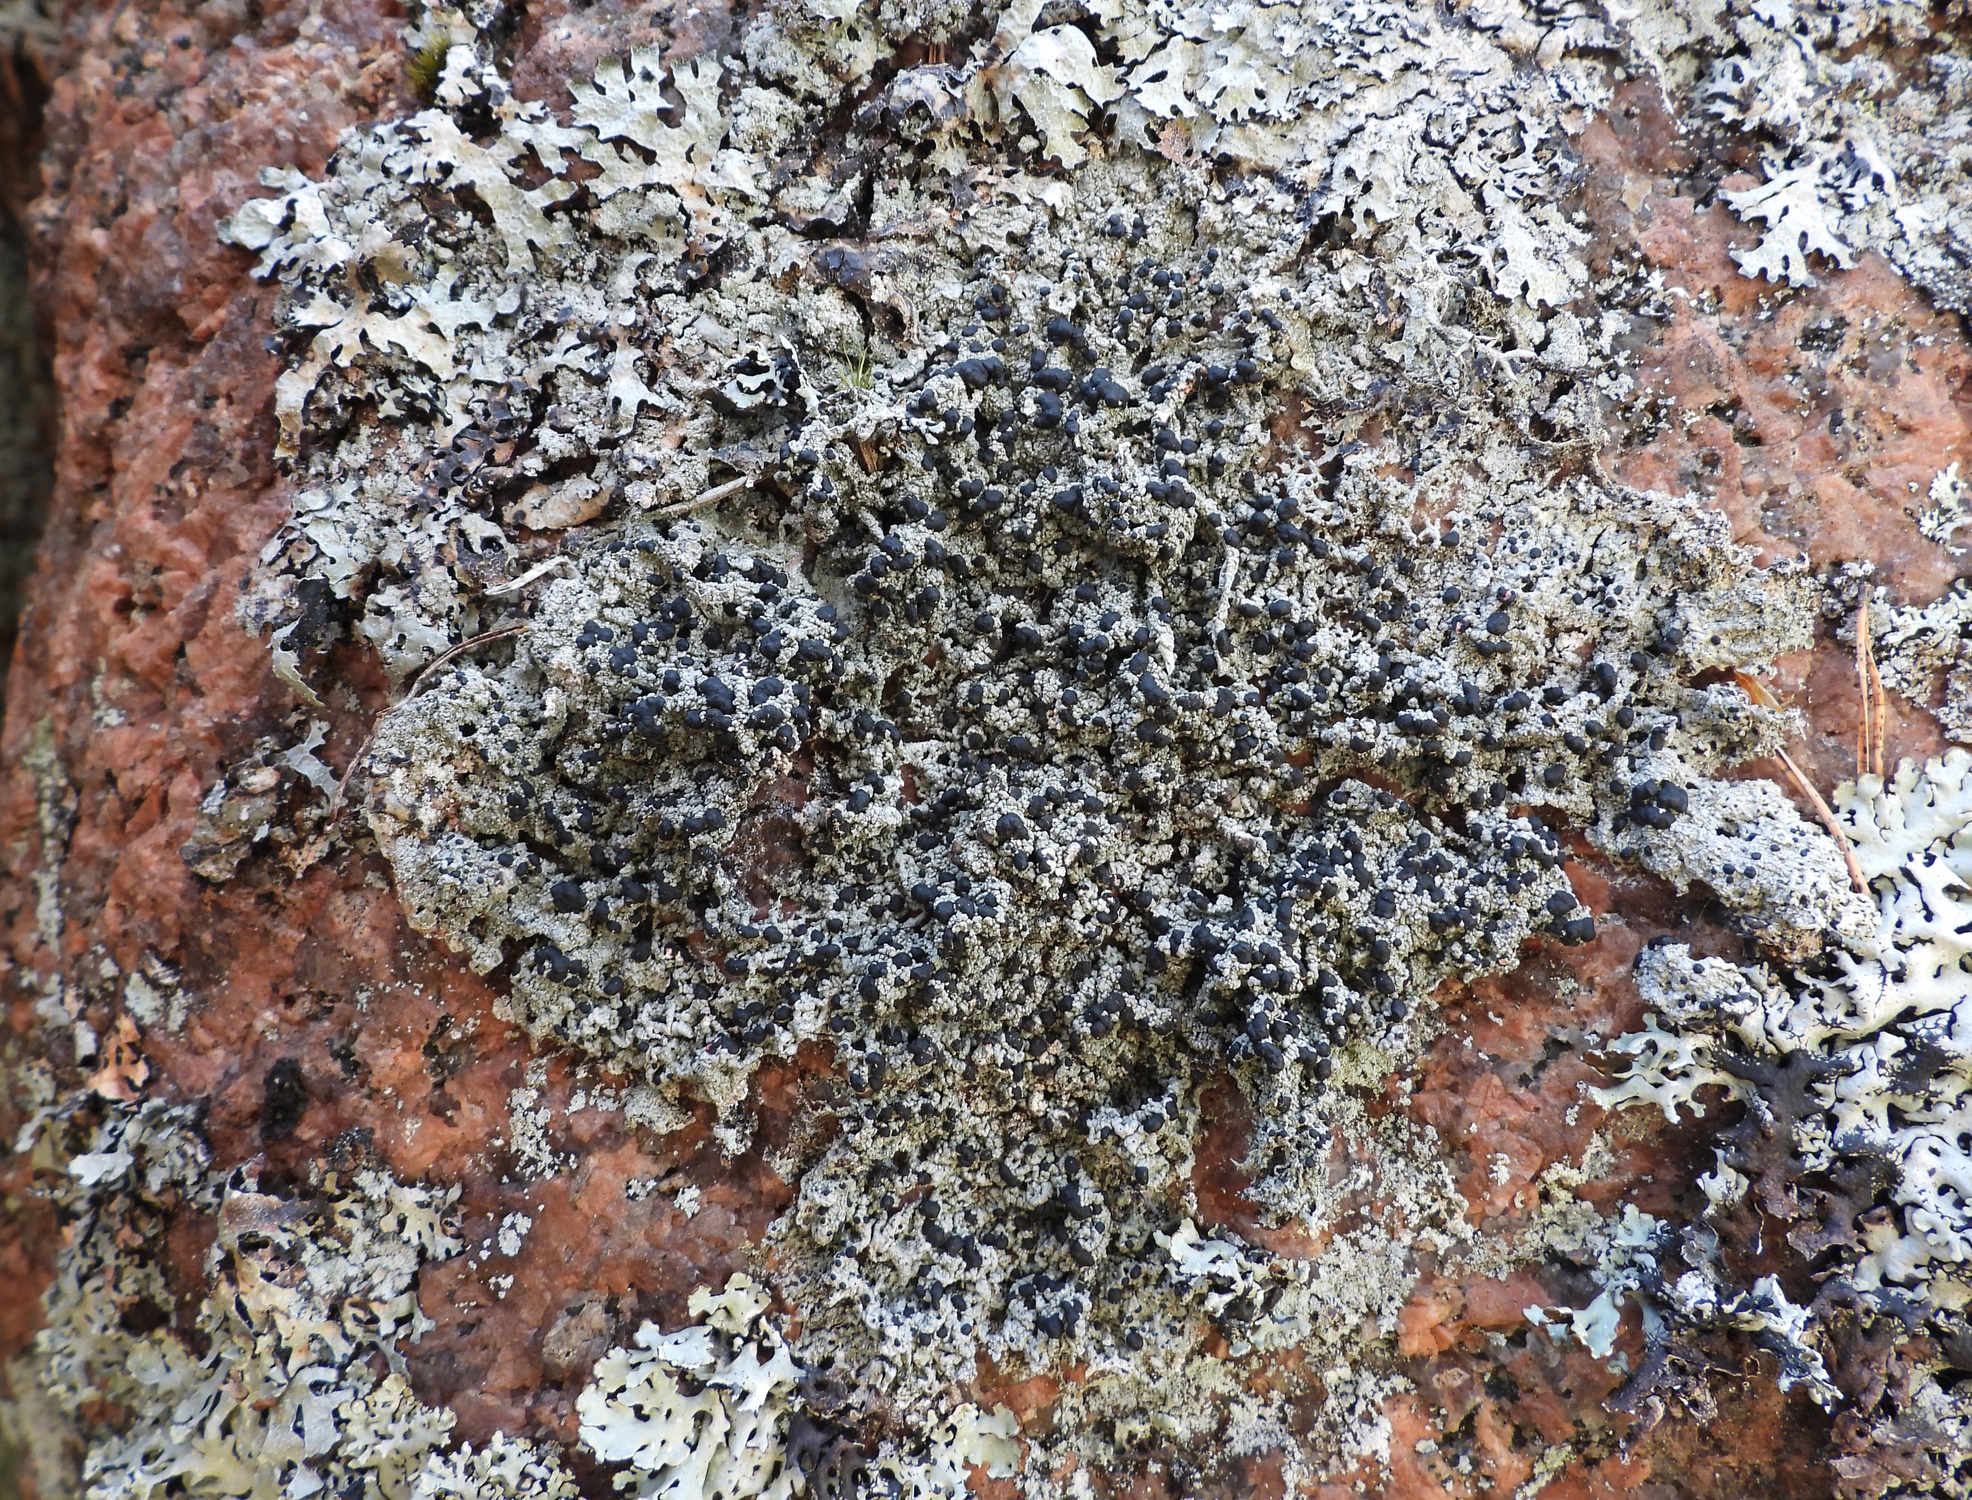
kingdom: Fungi
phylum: Ascomycota
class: Lecanoromycetes
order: Lecanorales
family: Tephromelataceae
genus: Mycoblastus
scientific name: Mycoblastus sanguinarius
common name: Bloody-heart lichen
